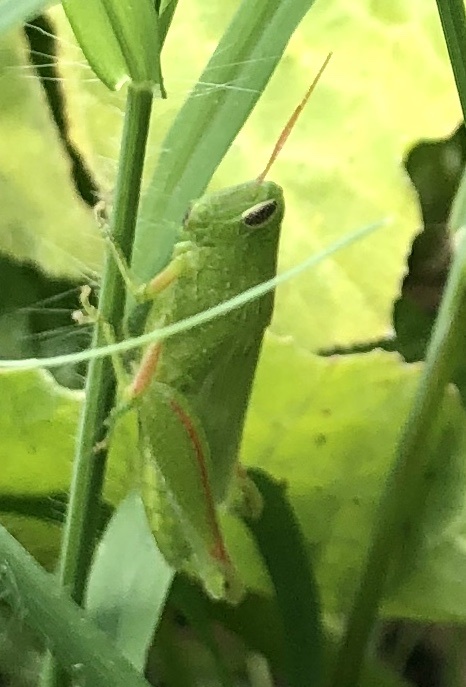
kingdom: Animalia
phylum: Arthropoda
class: Insecta
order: Orthoptera
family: Acrididae
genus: Hesperotettix
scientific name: Hesperotettix speciosus
